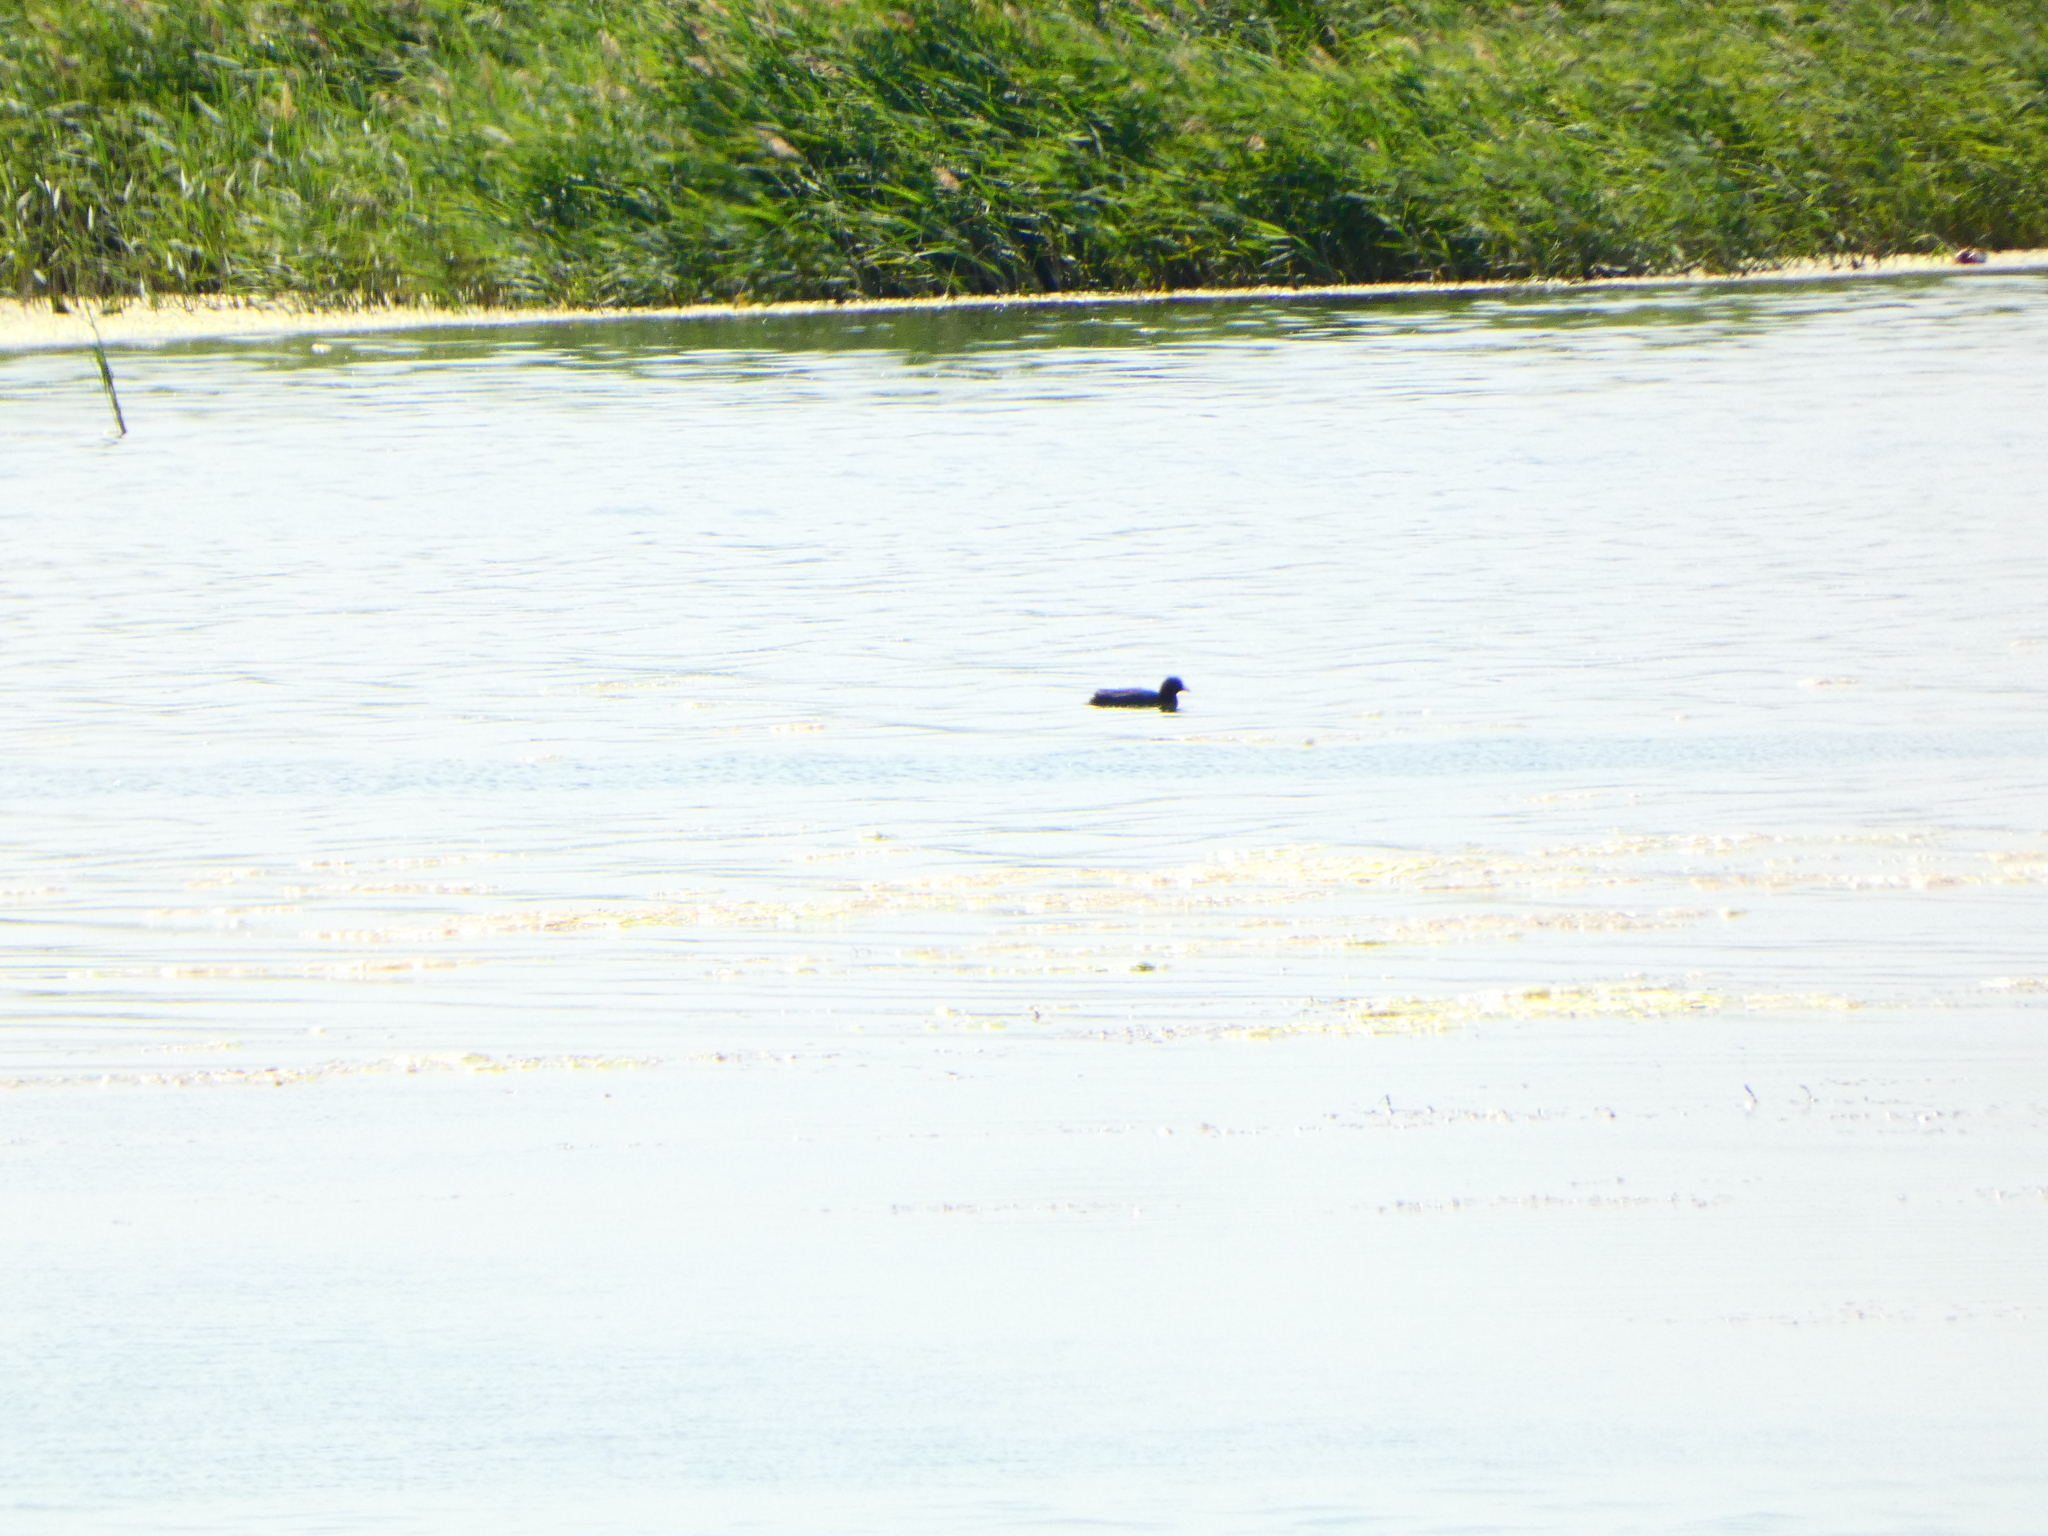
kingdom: Animalia
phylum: Chordata
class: Aves
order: Gruiformes
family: Rallidae
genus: Fulica
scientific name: Fulica atra
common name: Eurasian coot
